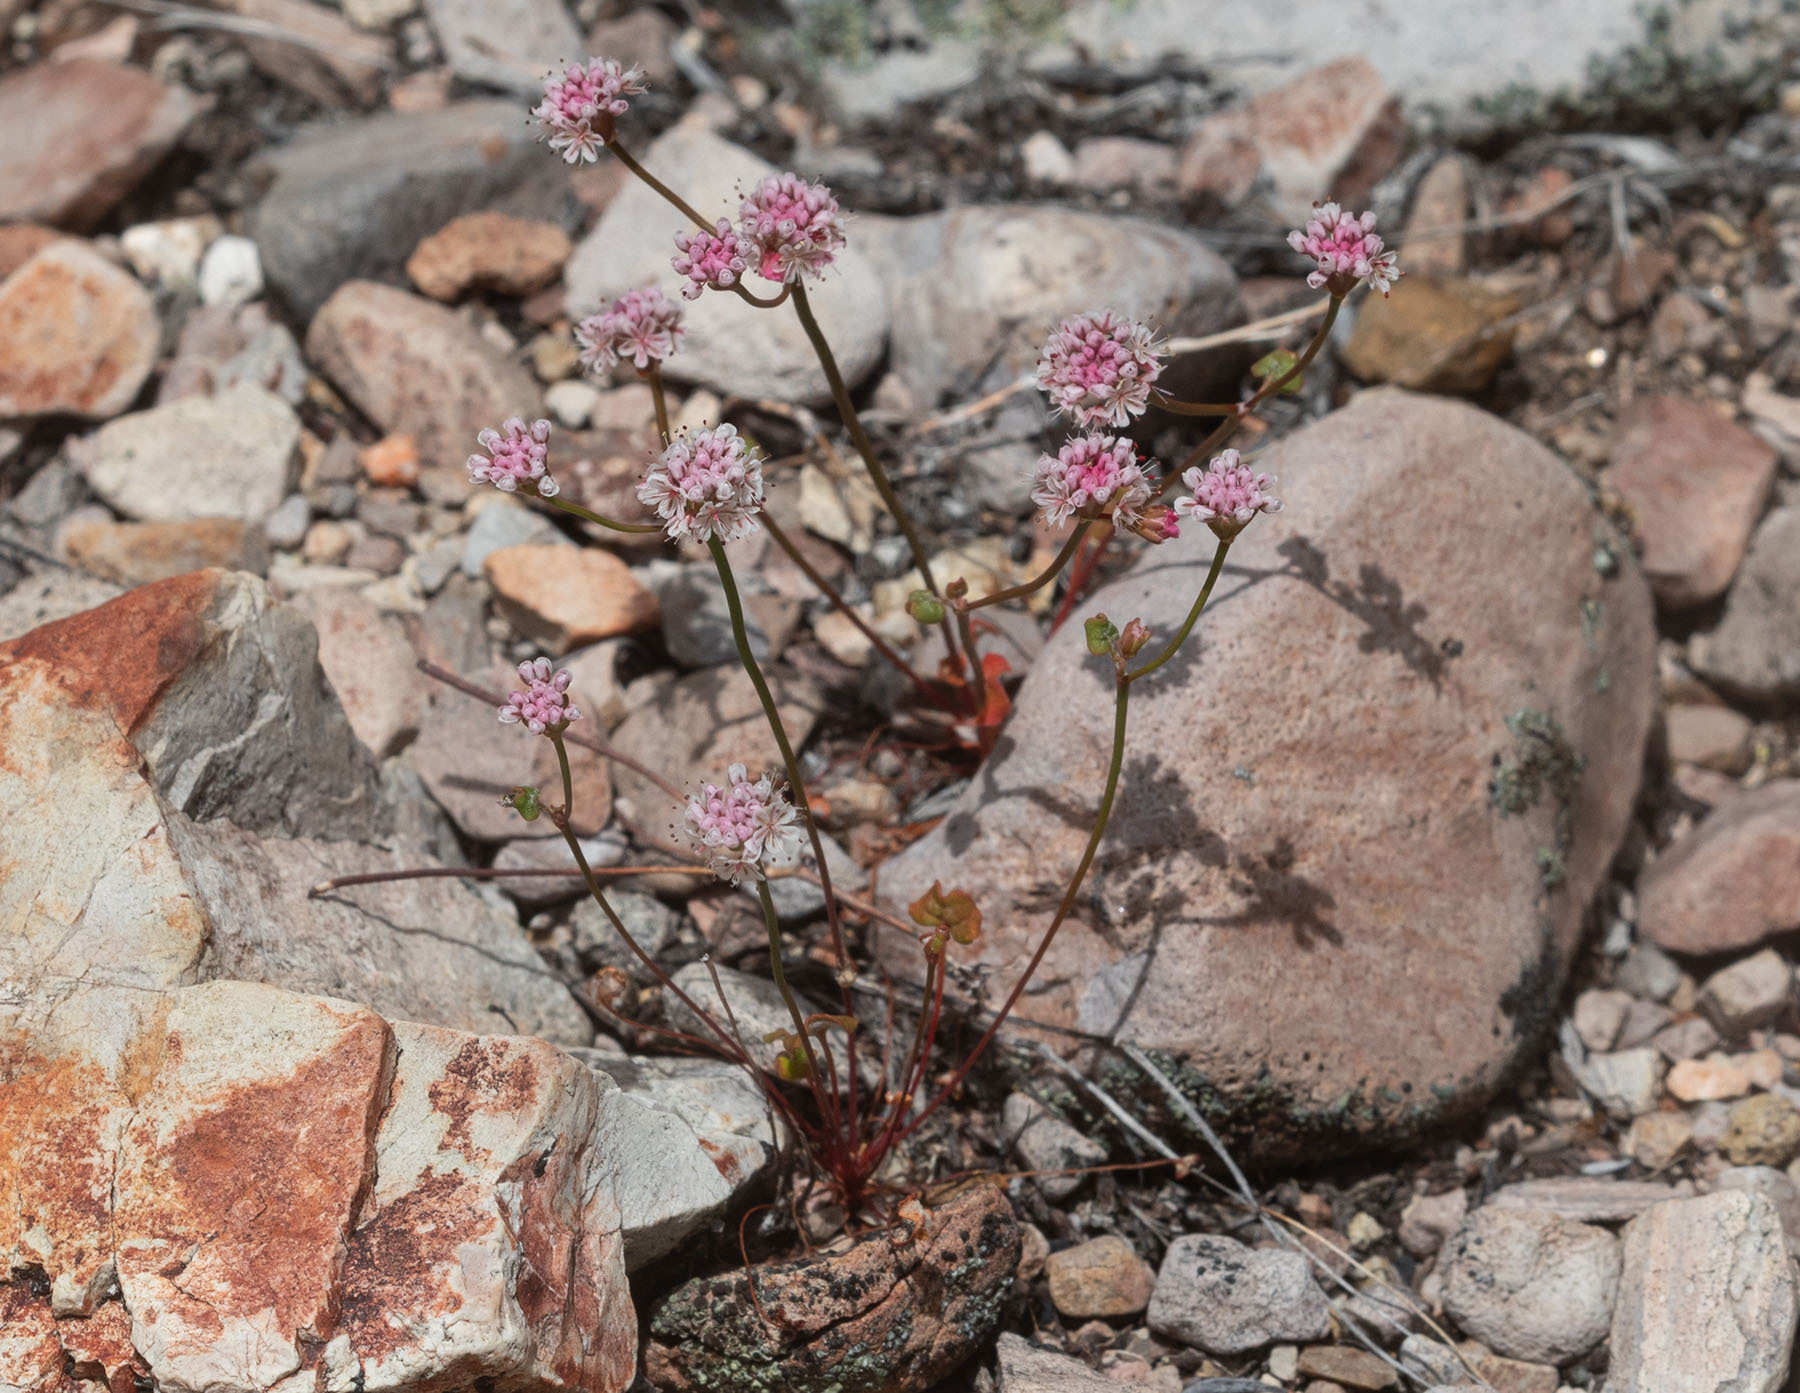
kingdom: Plantae
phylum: Tracheophyta
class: Magnoliopsida
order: Caryophyllales
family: Polygonaceae
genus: Eriogonum
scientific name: Eriogonum nortonii
